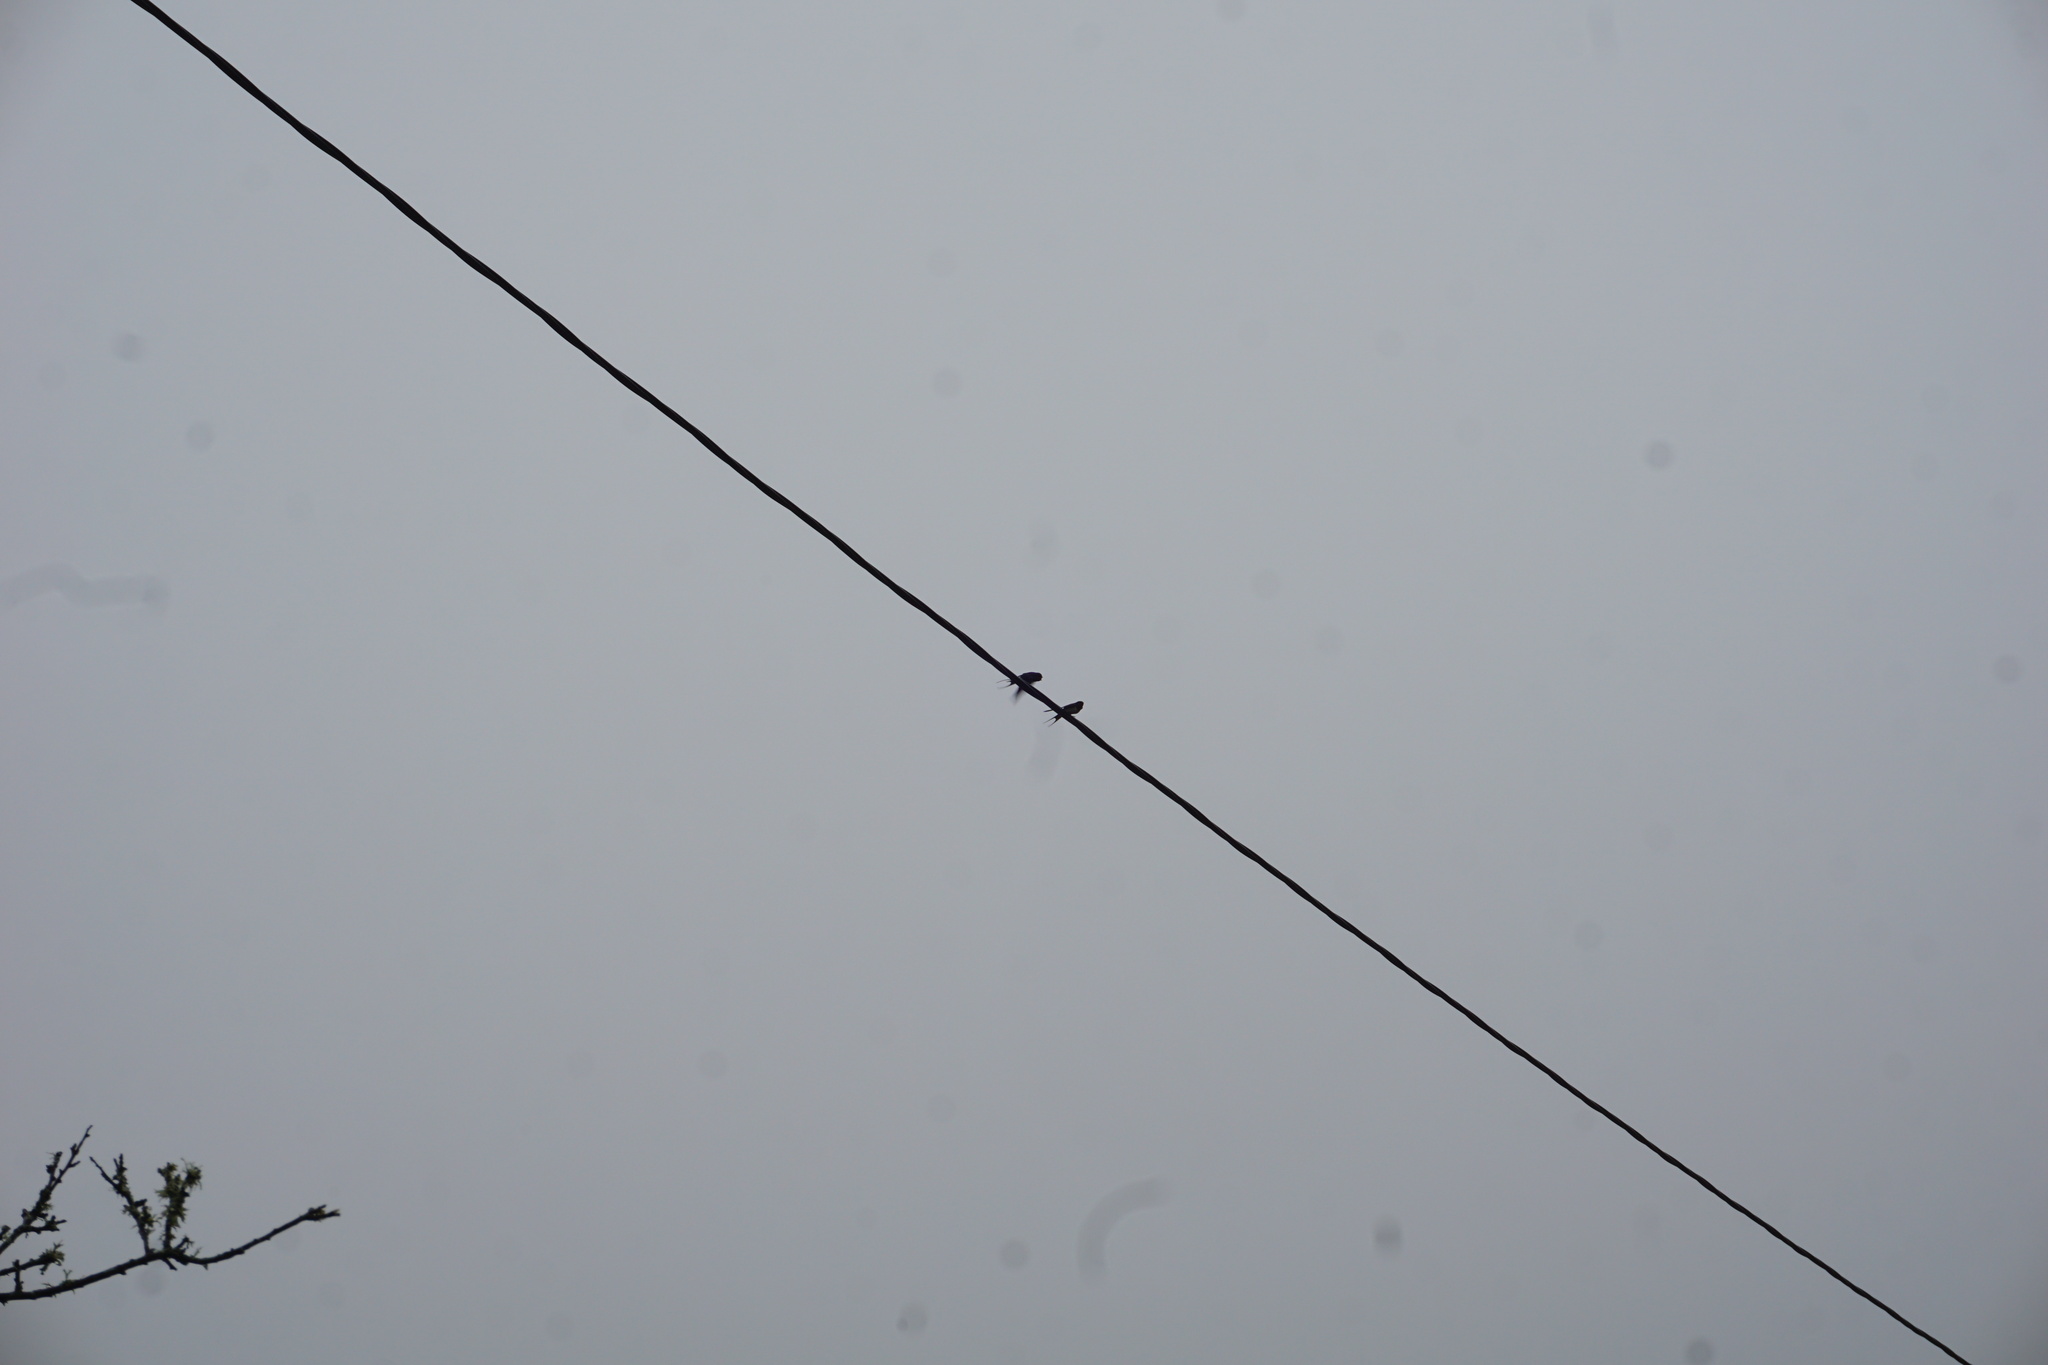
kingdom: Animalia
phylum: Chordata
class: Aves
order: Passeriformes
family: Hirundinidae
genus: Hirundo
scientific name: Hirundo rustica
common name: Barn swallow
